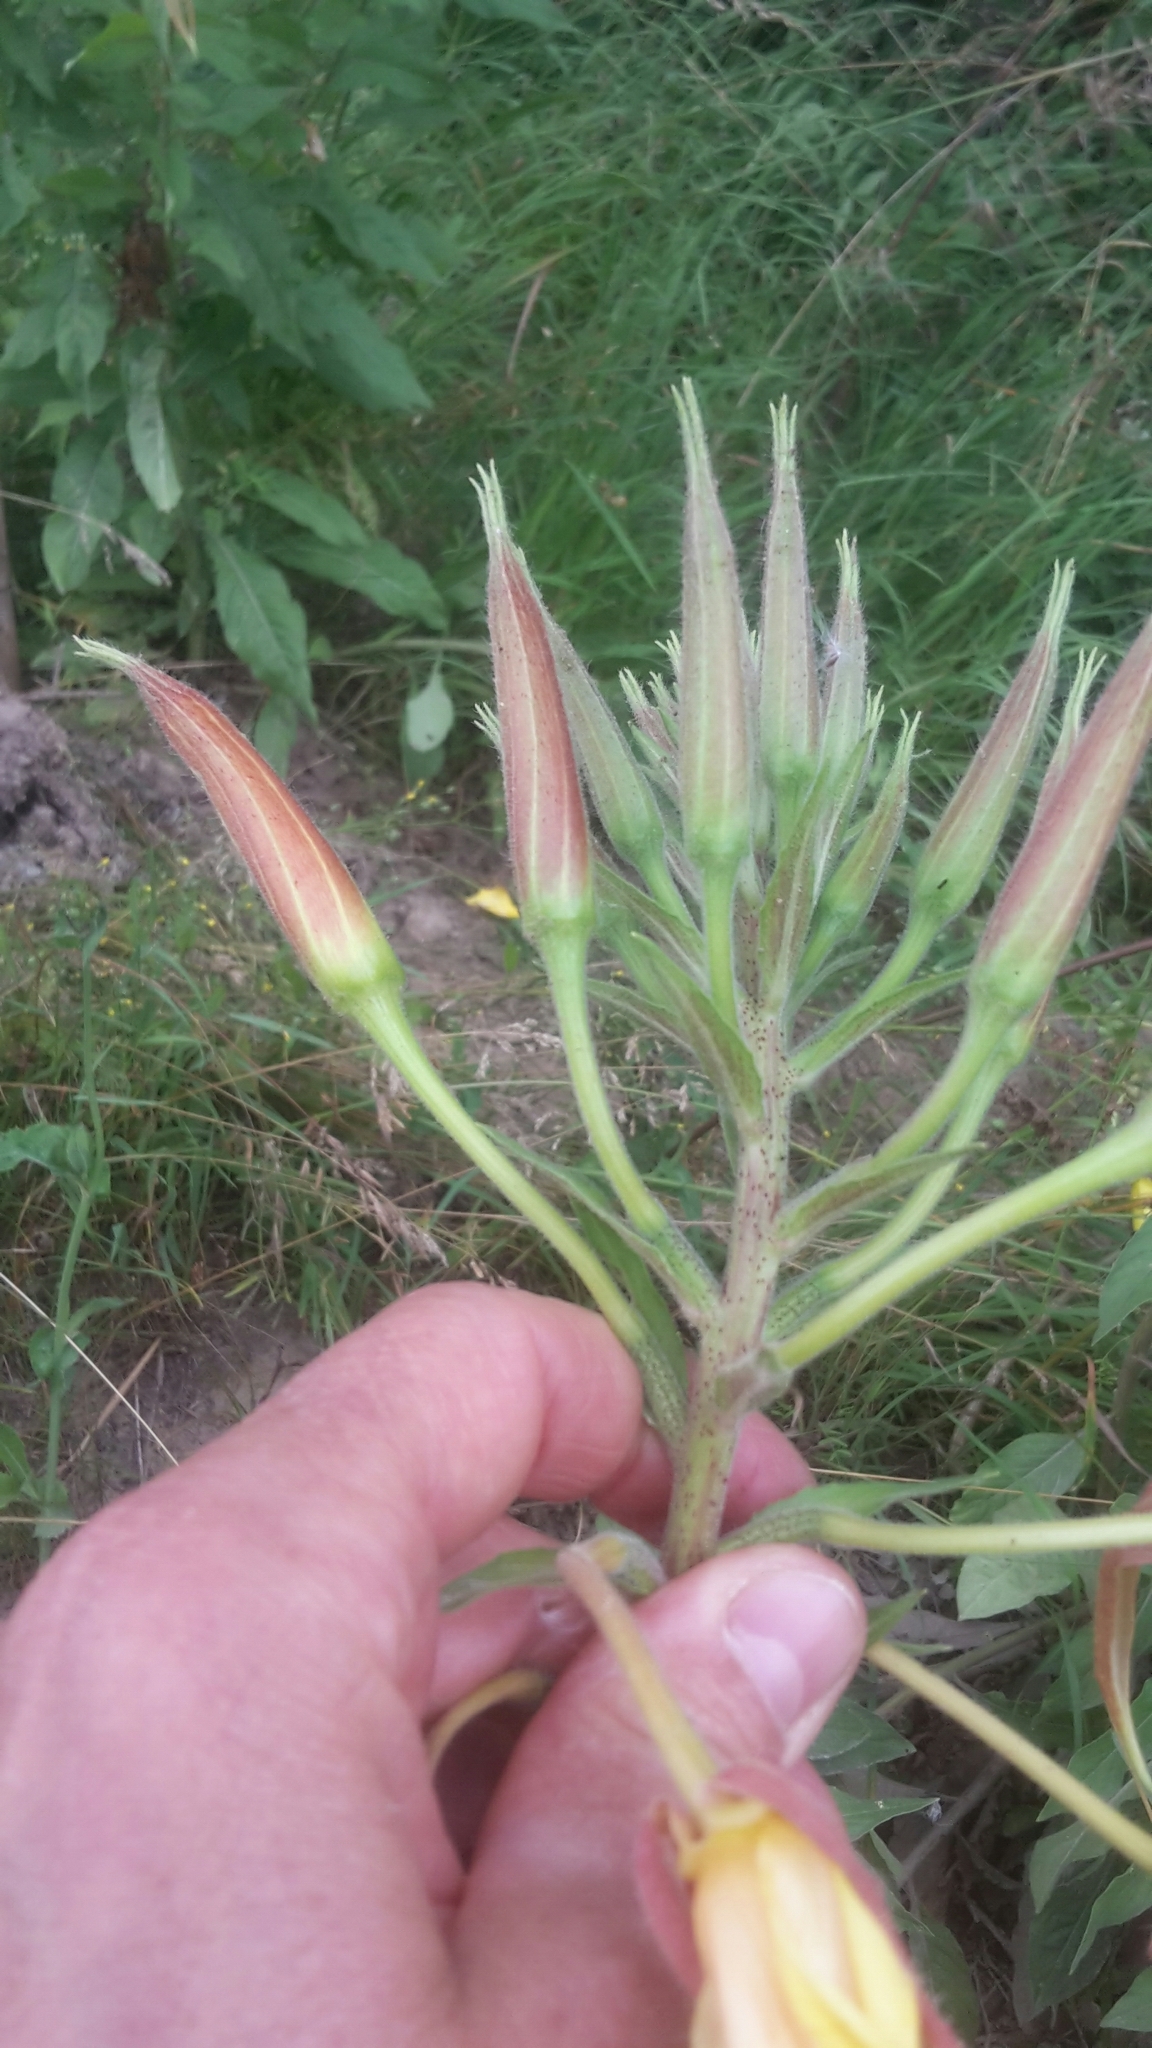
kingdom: Plantae
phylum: Tracheophyta
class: Magnoliopsida
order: Myrtales
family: Onagraceae
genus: Oenothera
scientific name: Oenothera glazioviana
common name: Large-flowered evening-primrose
